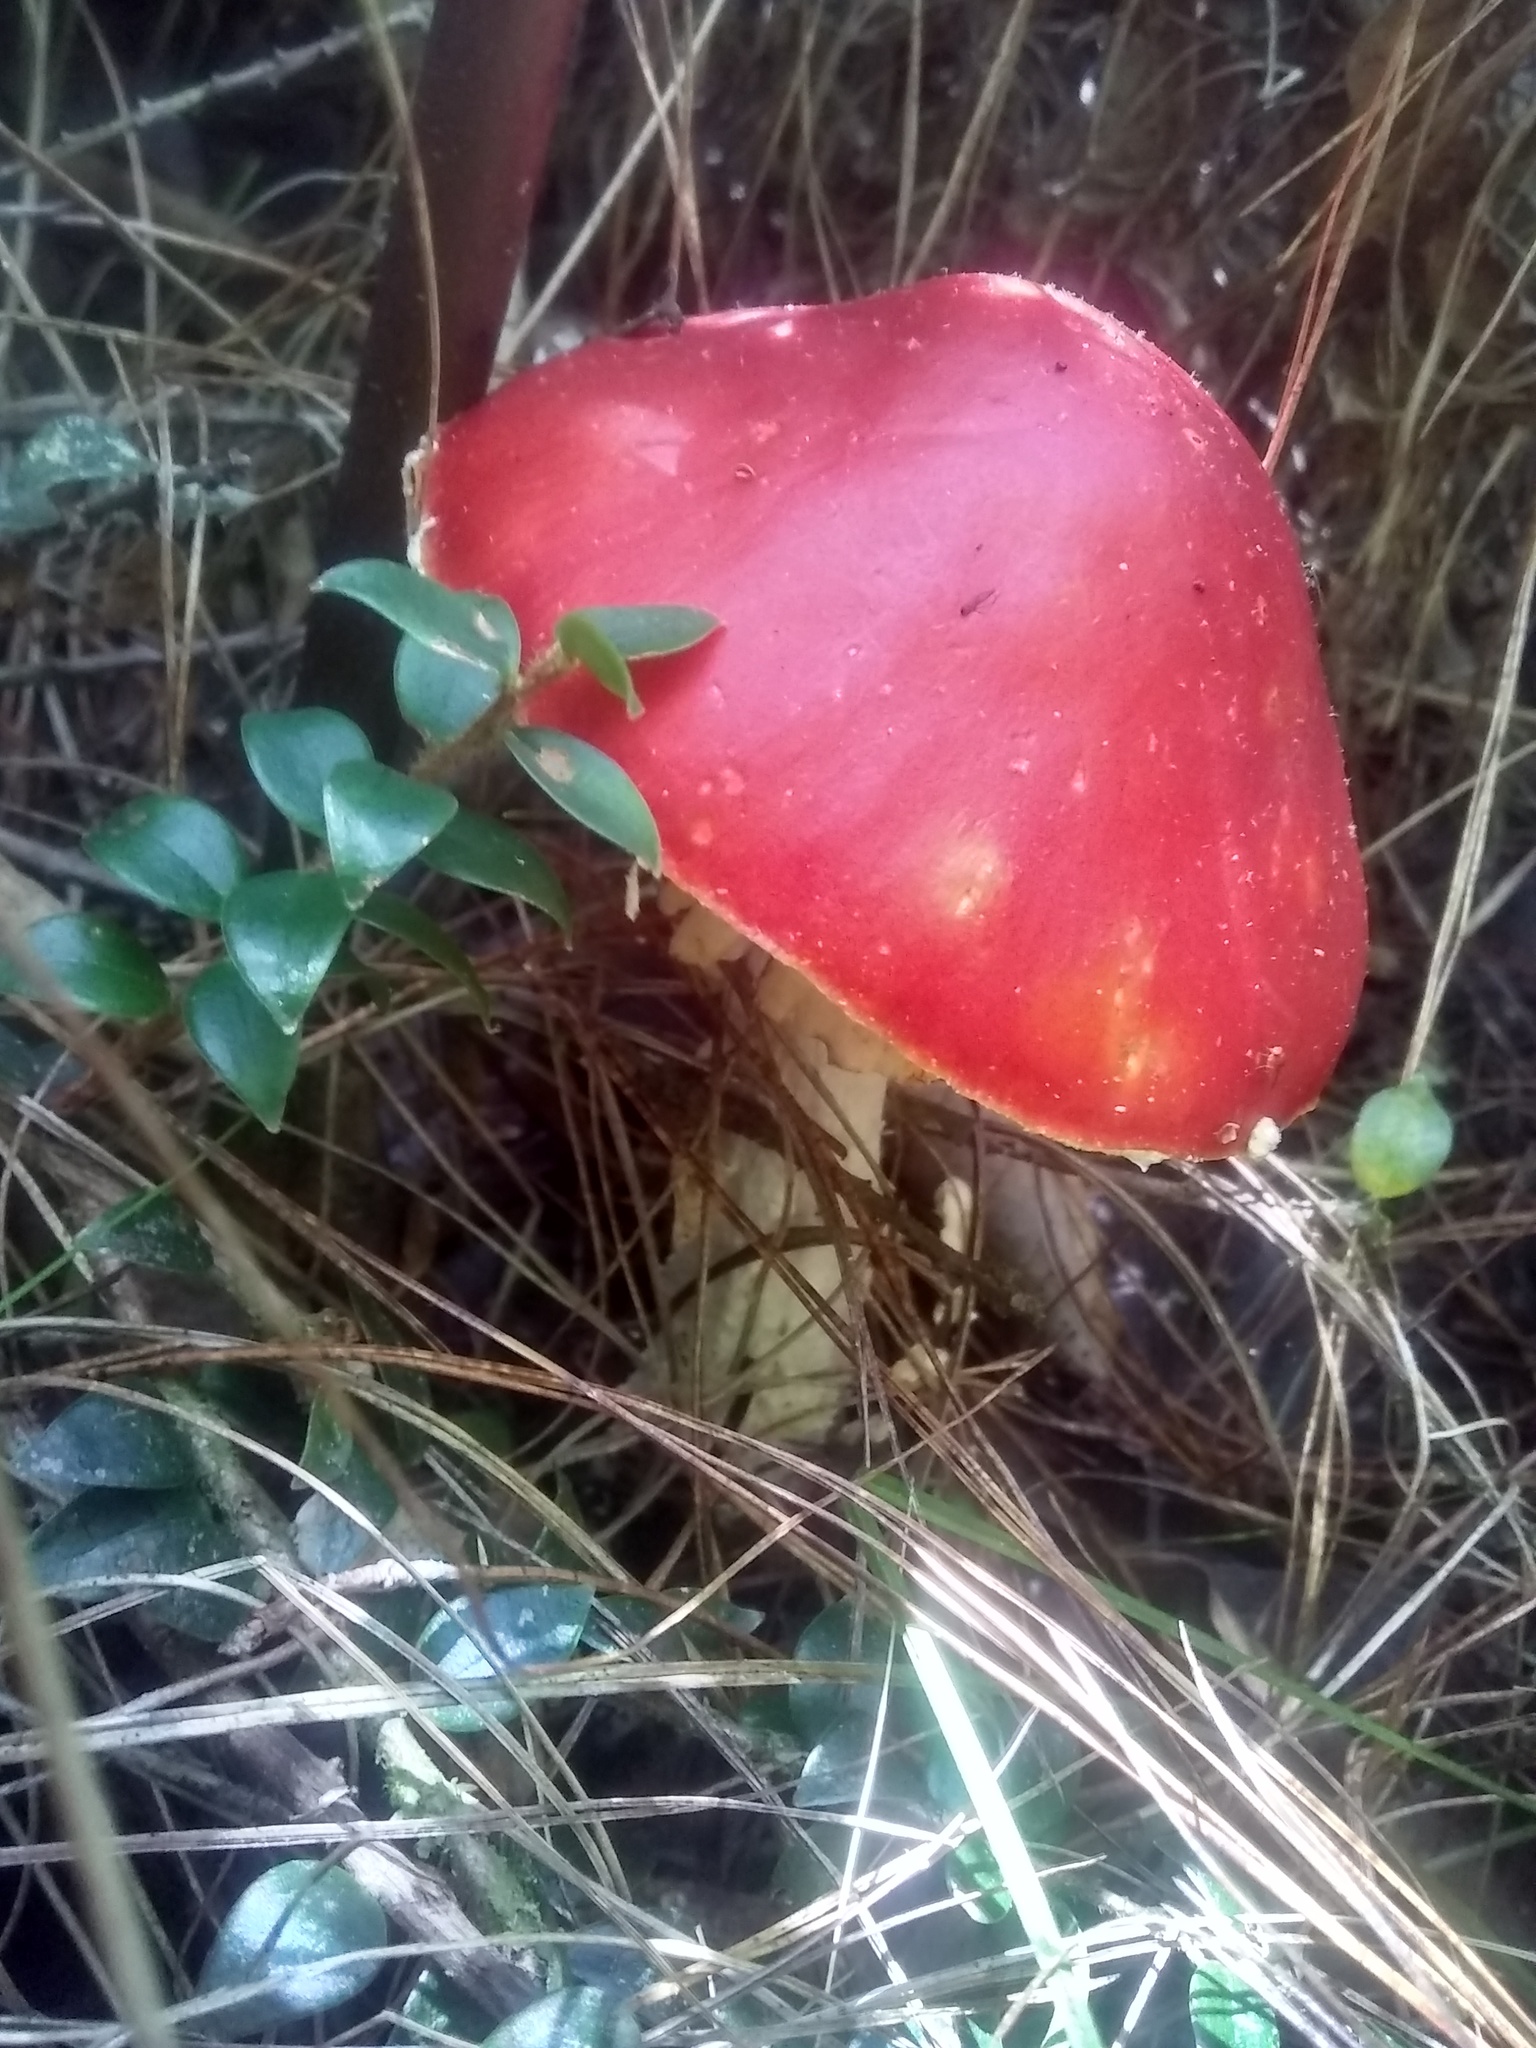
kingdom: Fungi
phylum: Basidiomycota
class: Agaricomycetes
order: Agaricales
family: Amanitaceae
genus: Amanita
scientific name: Amanita muscaria
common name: Fly agaric
